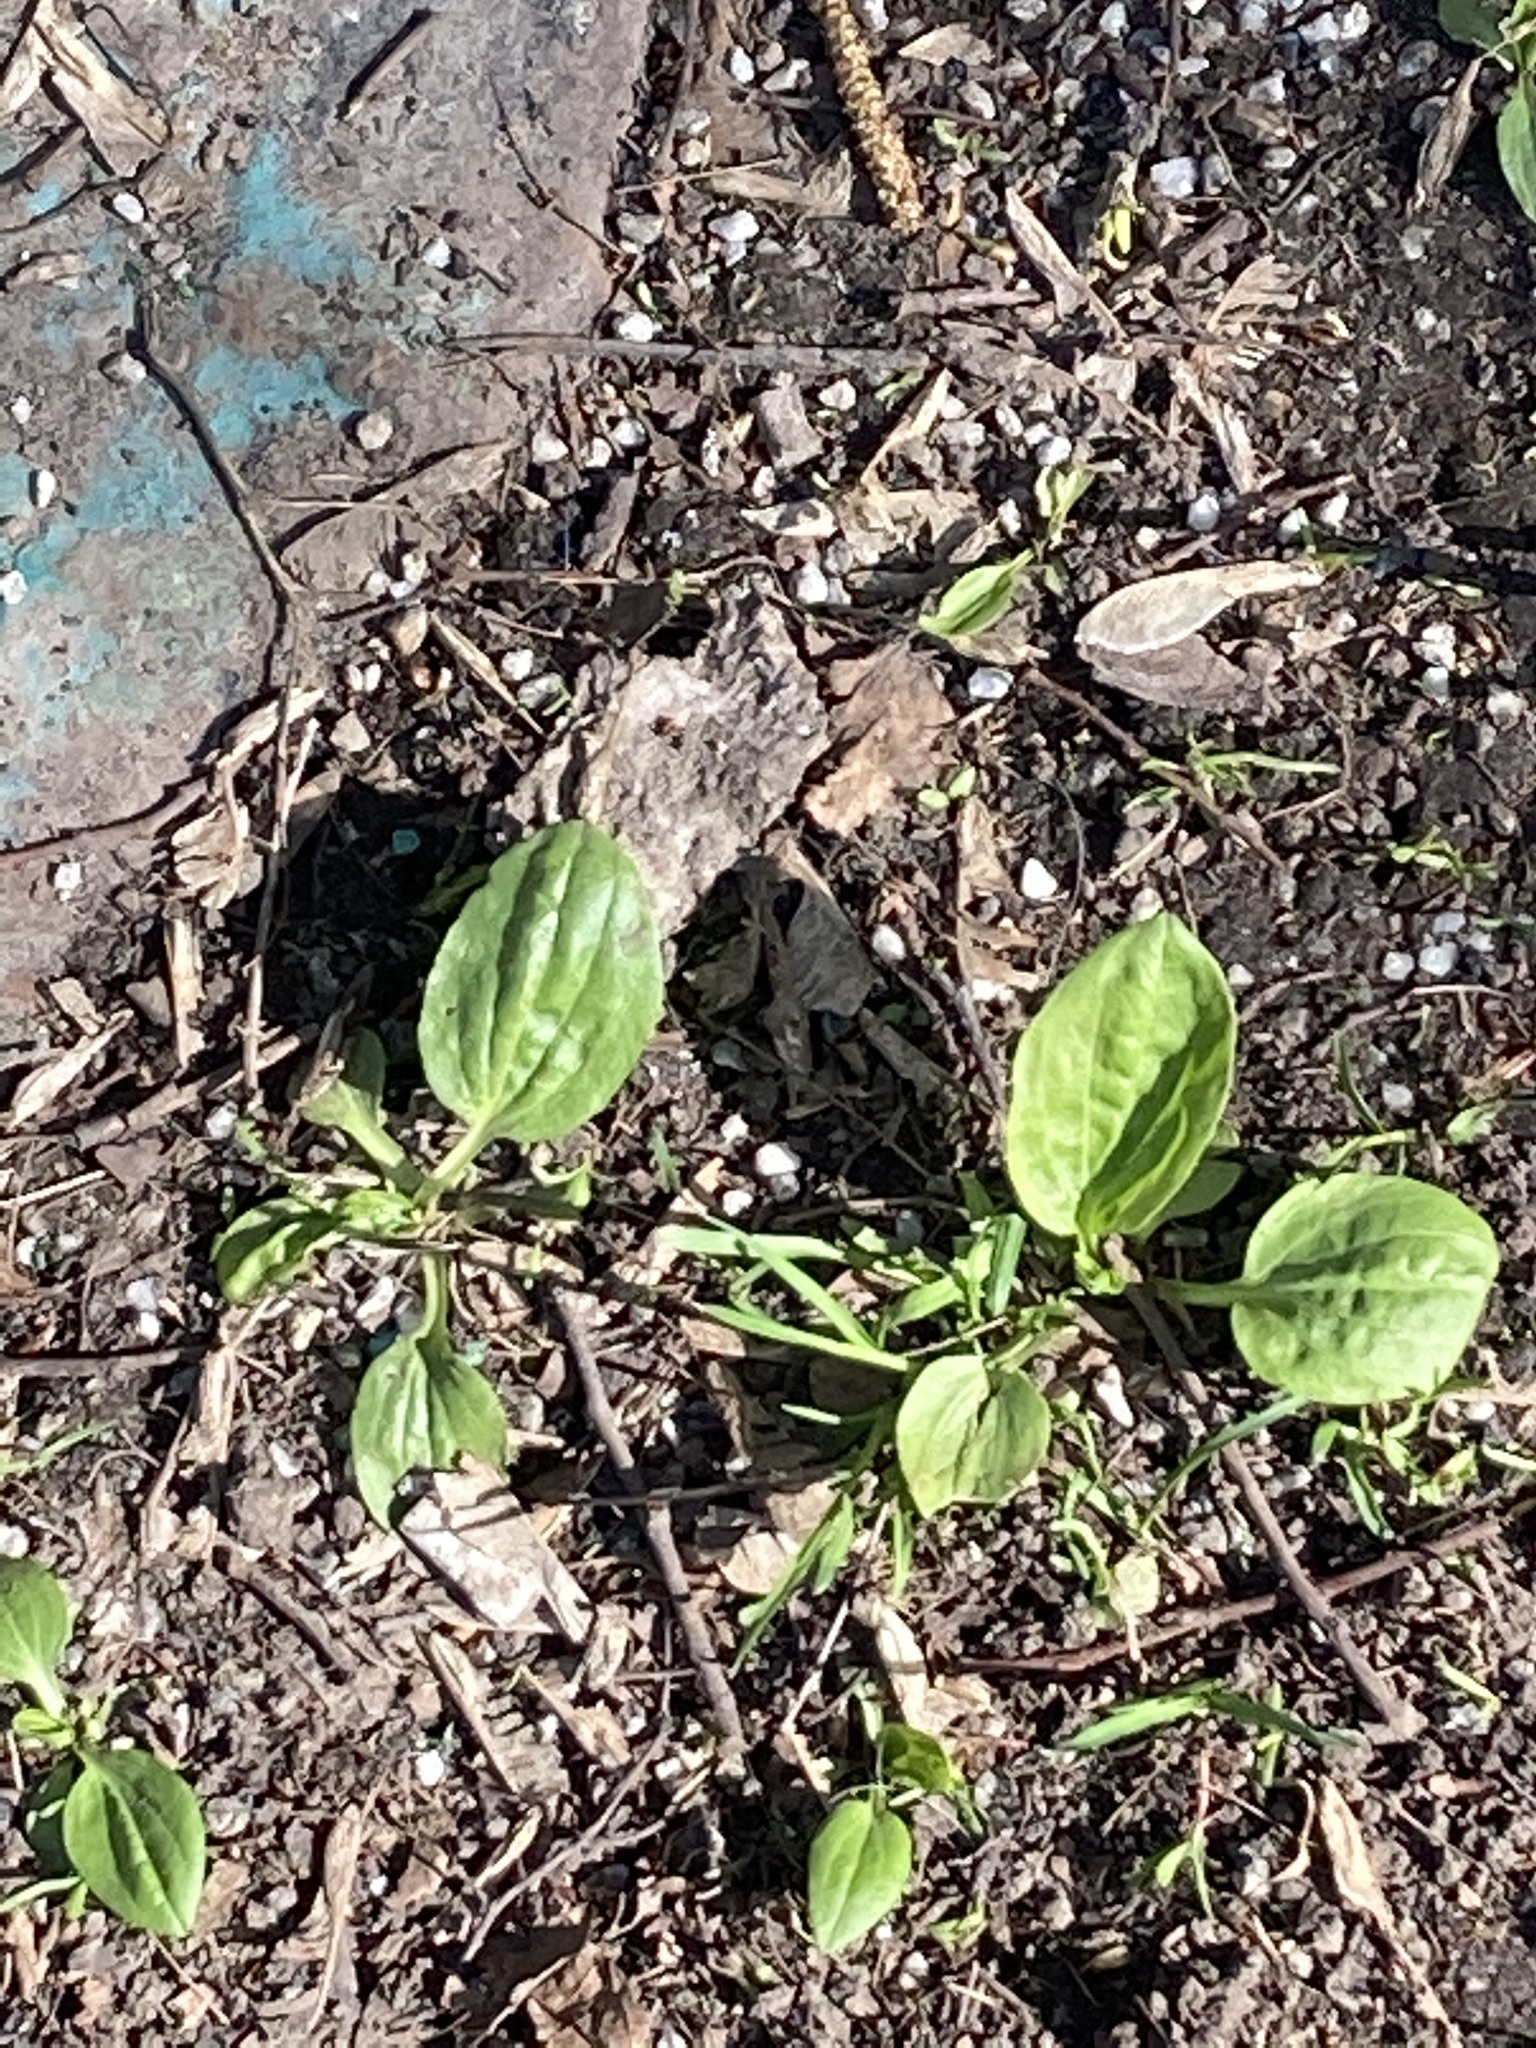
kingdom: Plantae
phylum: Tracheophyta
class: Magnoliopsida
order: Lamiales
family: Plantaginaceae
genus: Plantago
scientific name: Plantago major
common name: Common plantain
